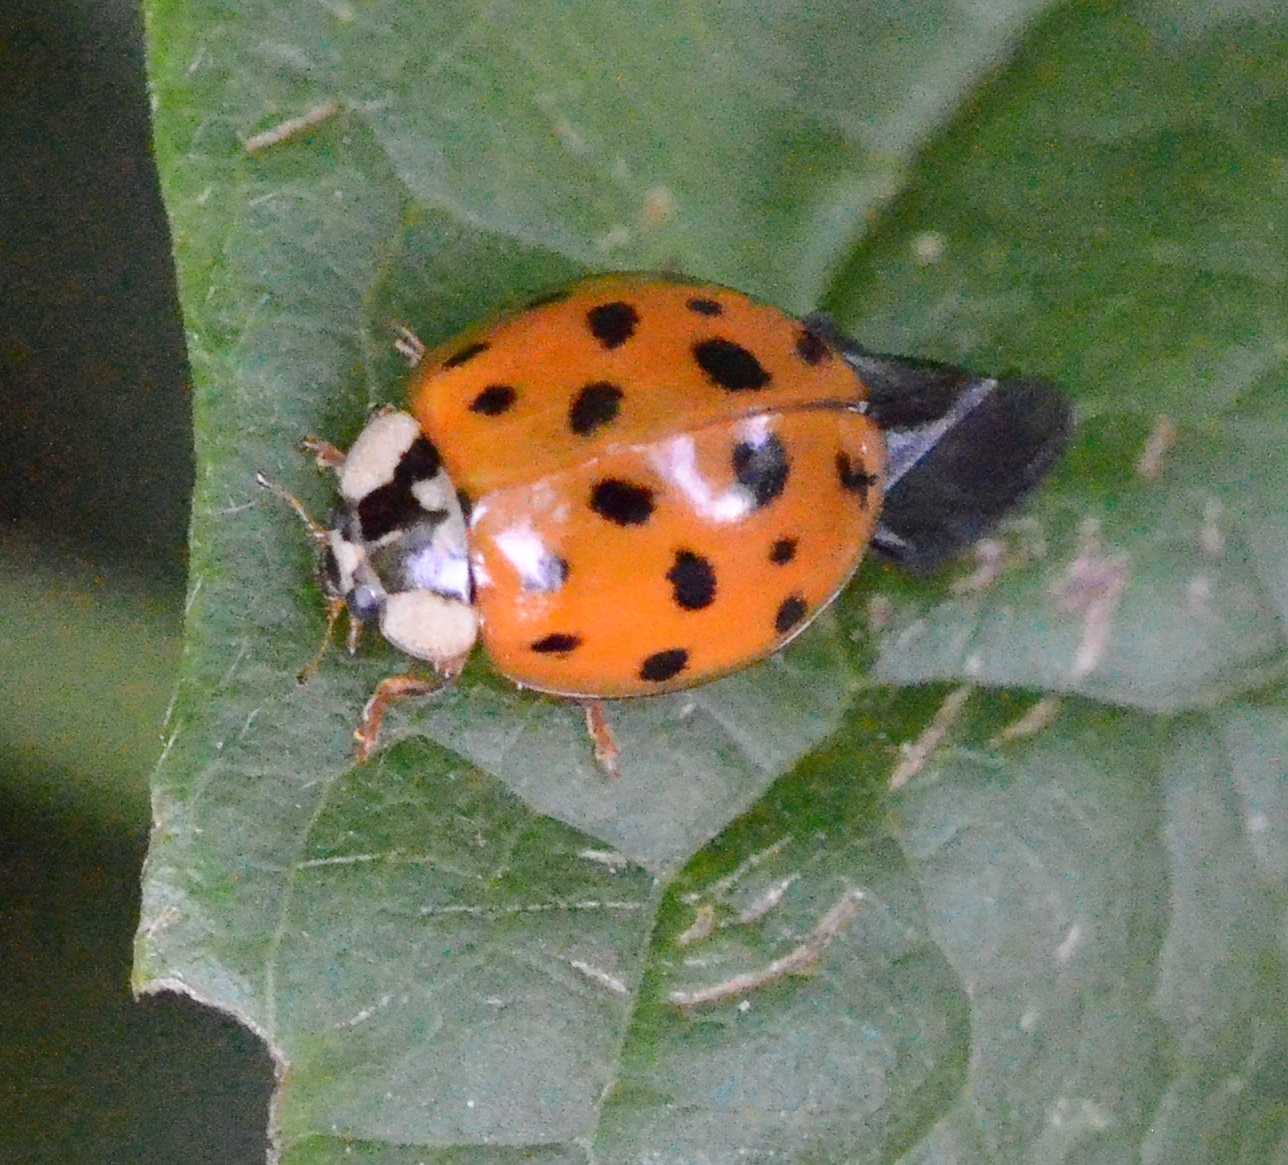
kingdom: Animalia
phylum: Arthropoda
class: Insecta
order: Coleoptera
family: Coccinellidae
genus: Harmonia
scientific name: Harmonia axyridis
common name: Harlequin ladybird
